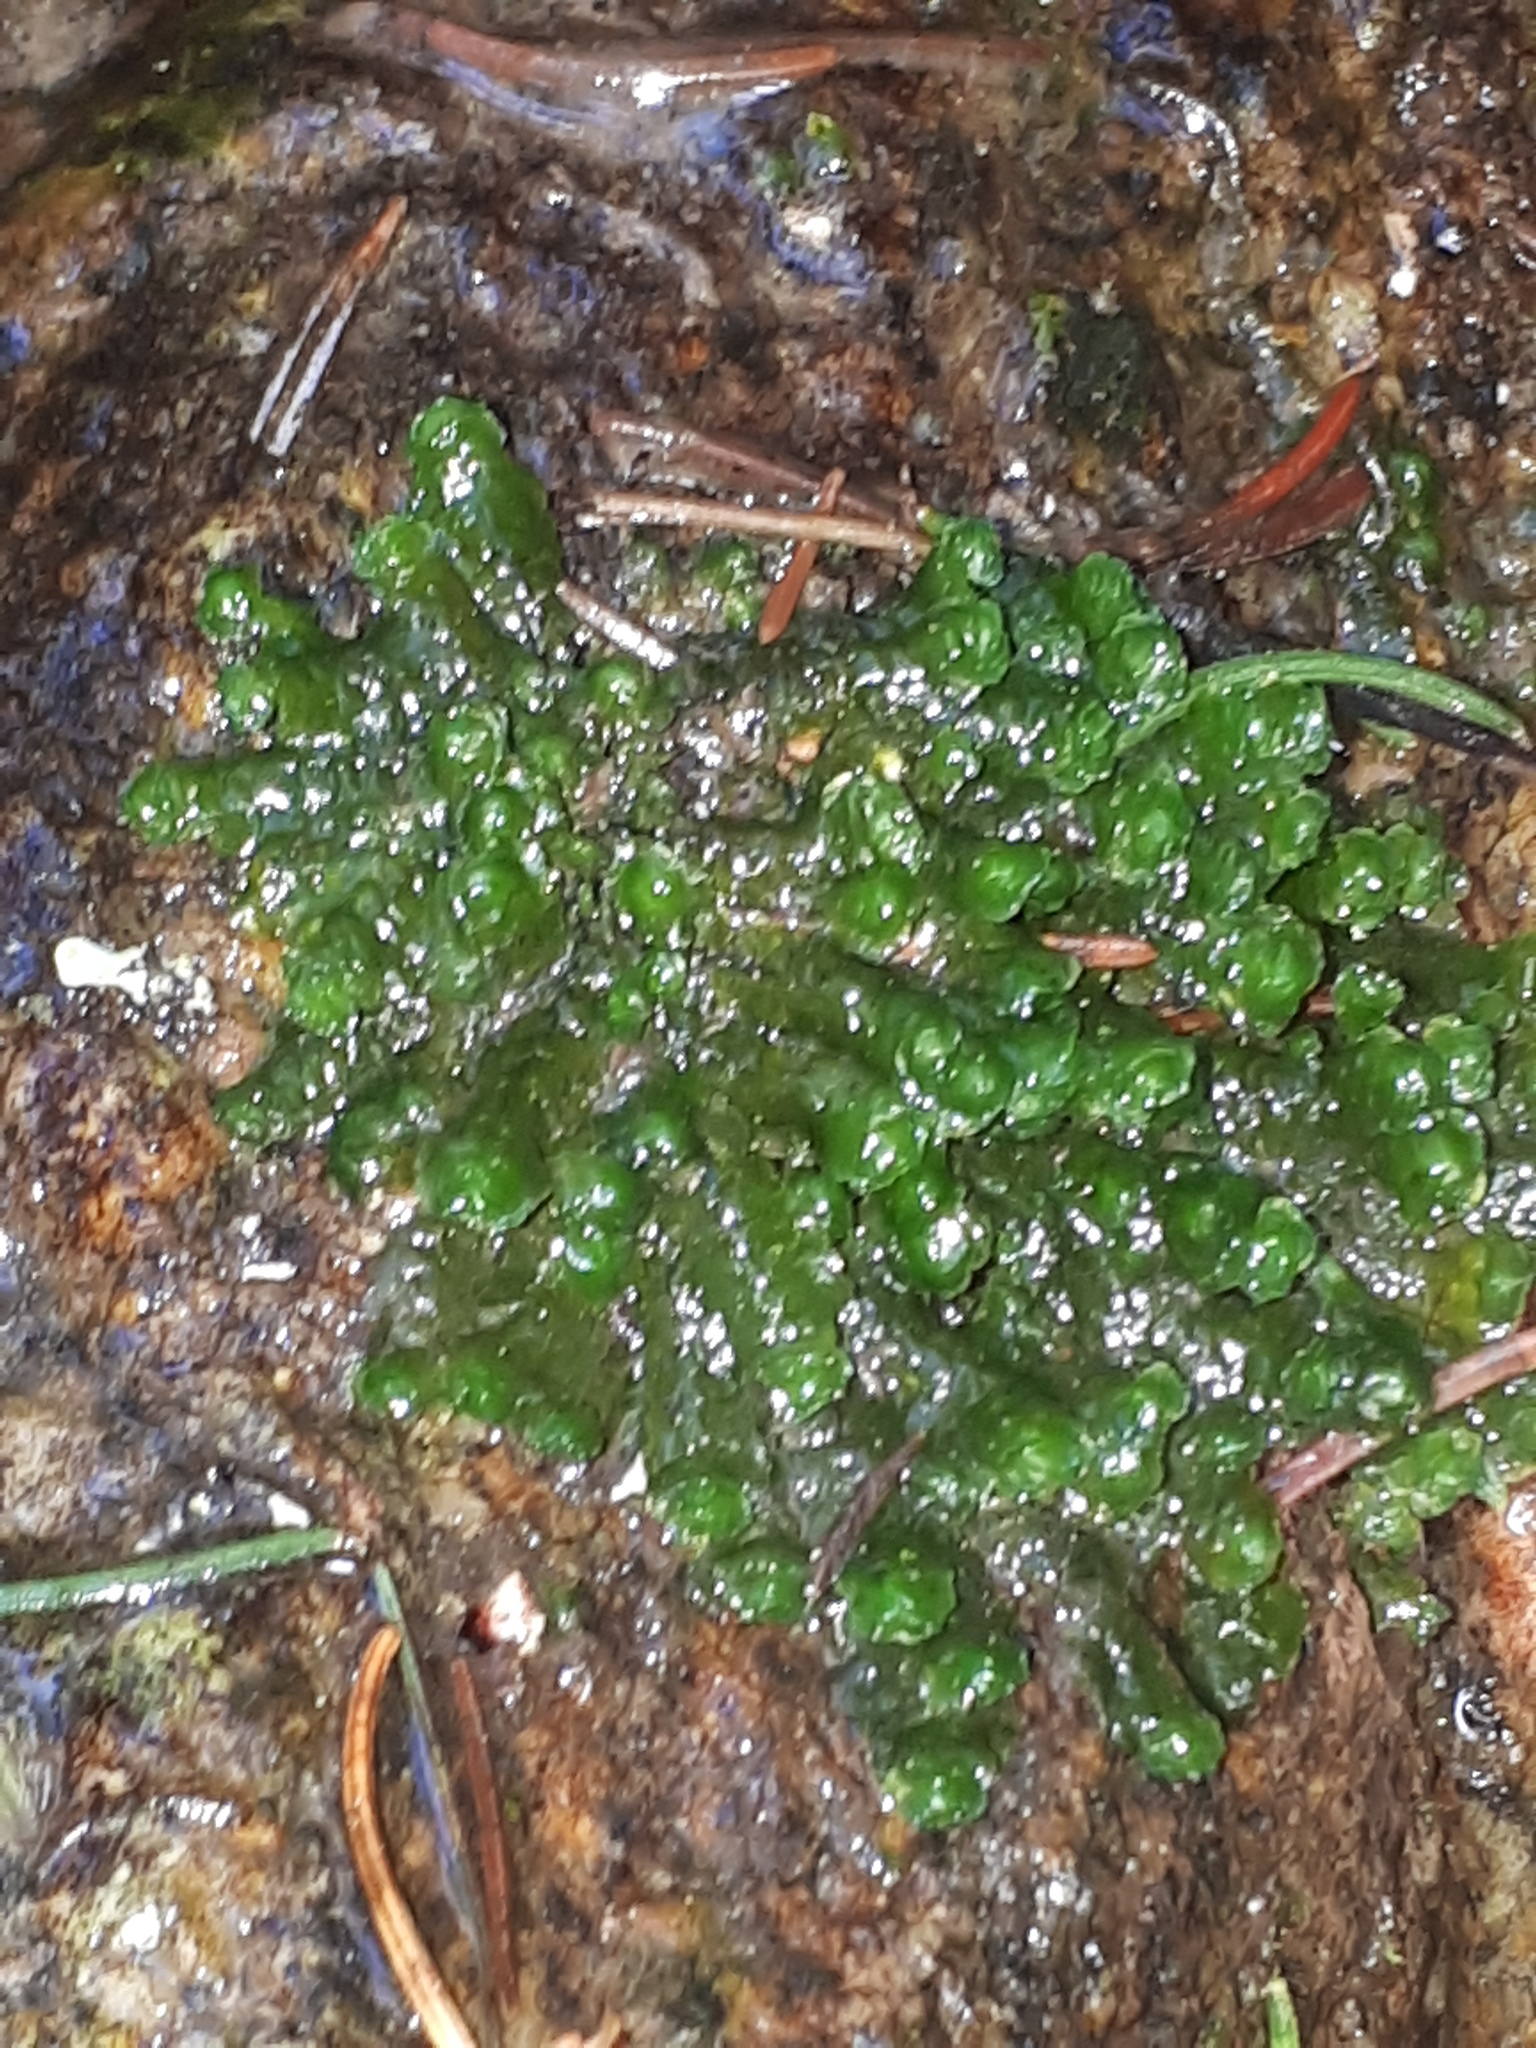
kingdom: Plantae
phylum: Marchantiophyta
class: Jungermanniopsida
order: Jungermanniales
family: Scapaniaceae
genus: Scapania
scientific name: Scapania undulata
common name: Water earwort
